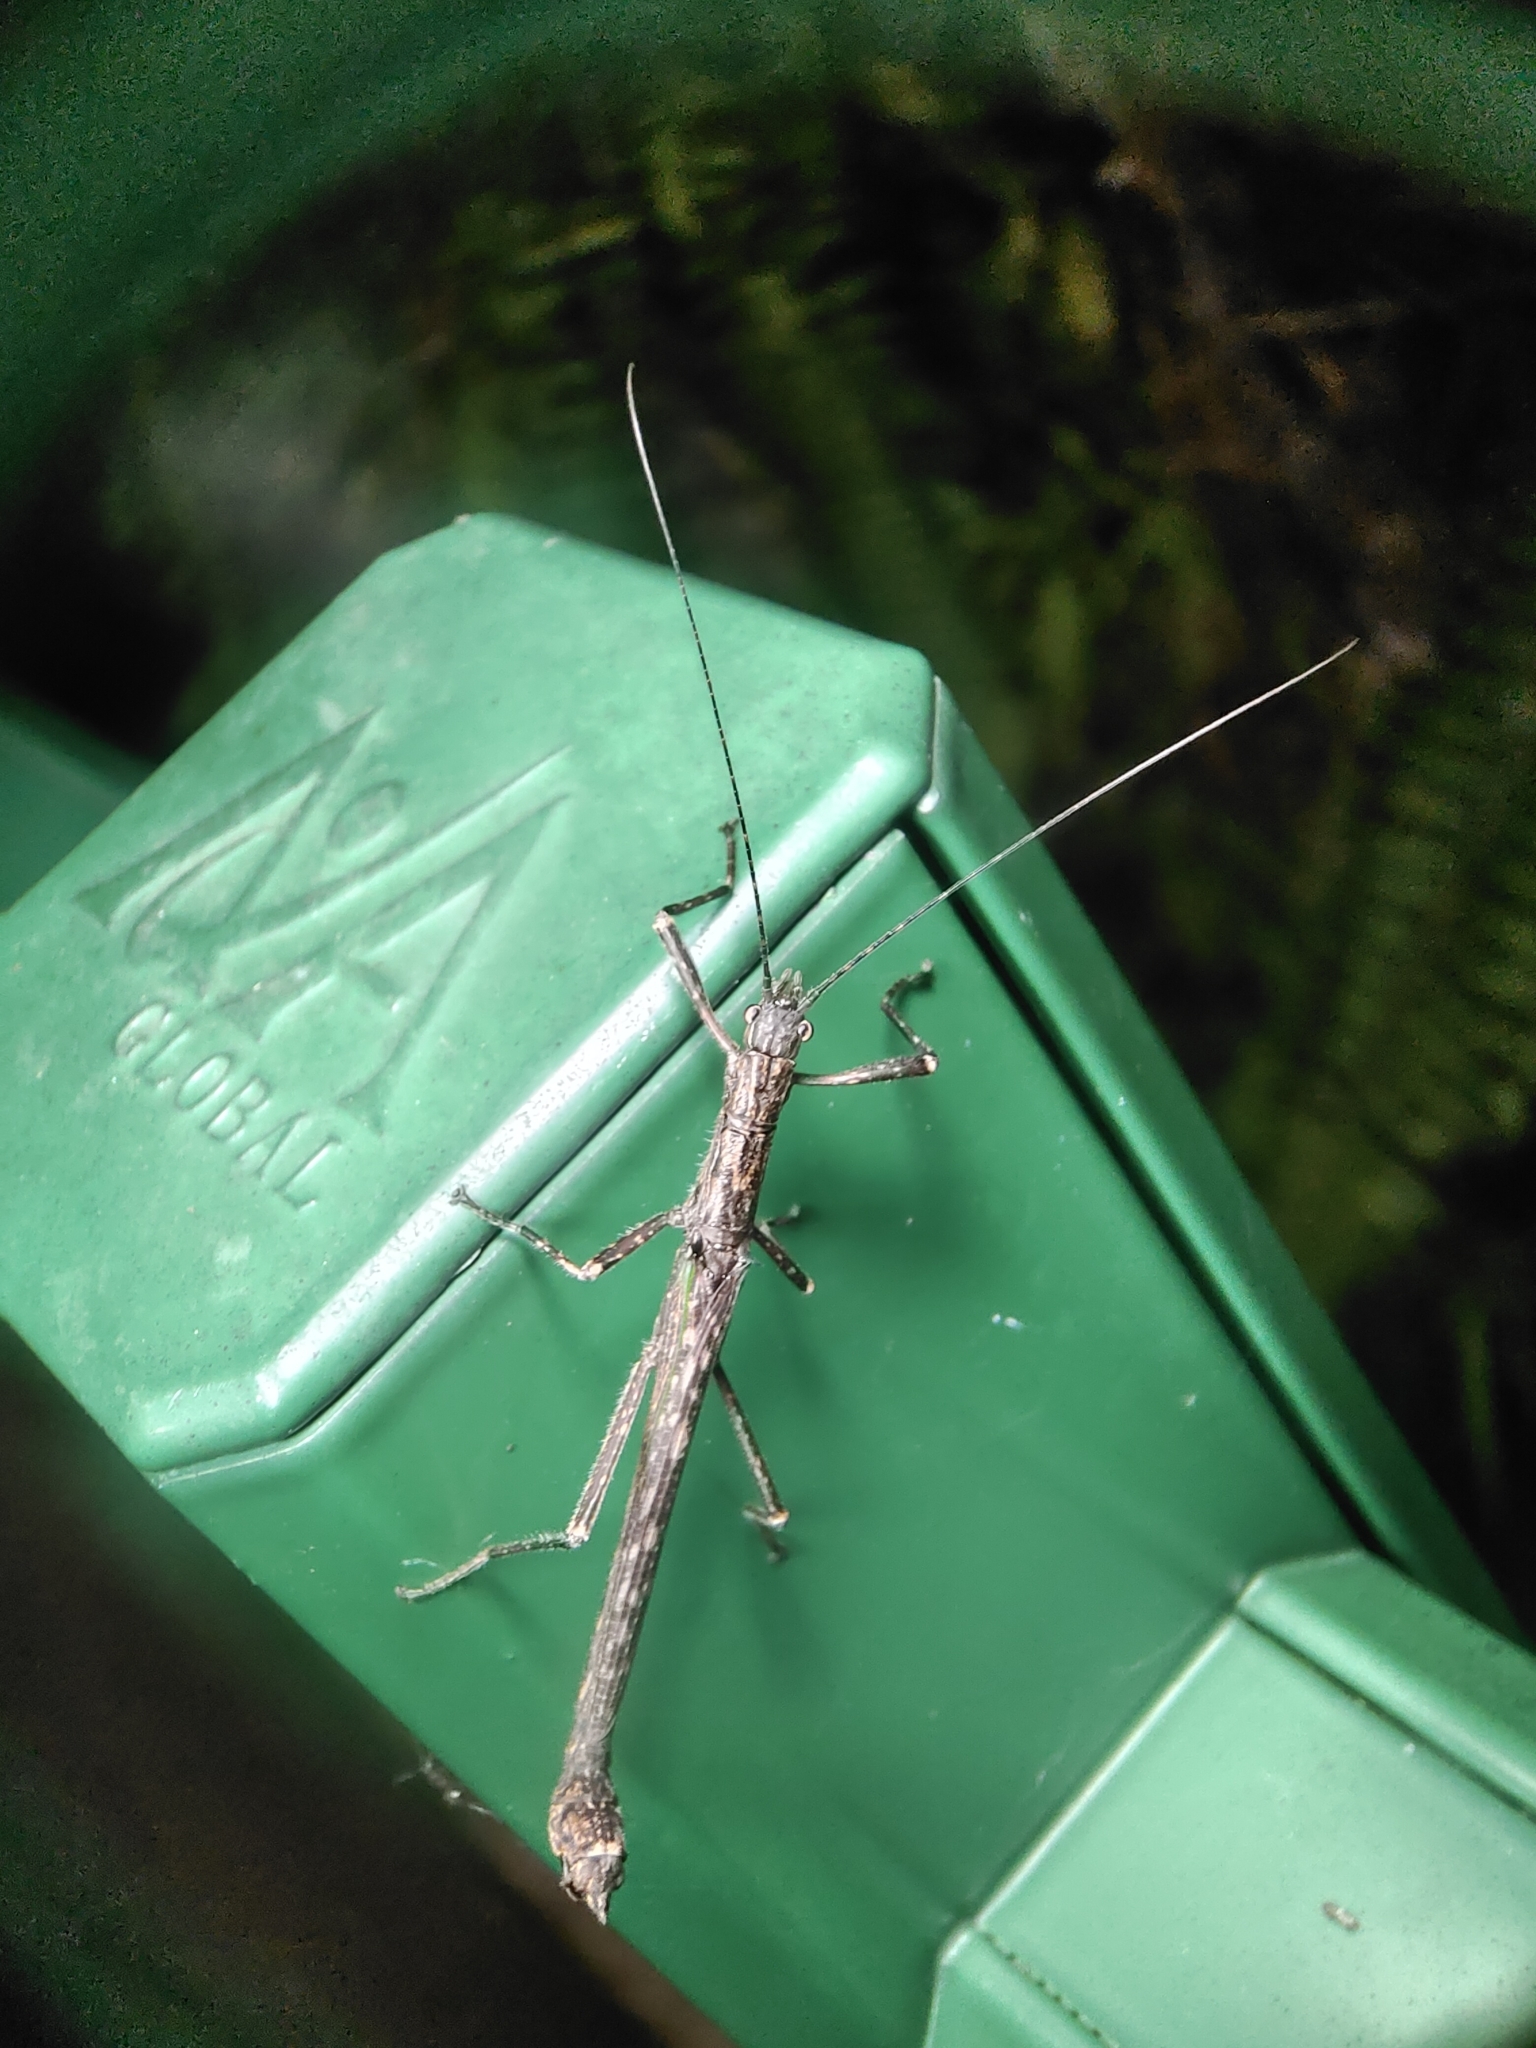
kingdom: Animalia
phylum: Arthropoda
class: Insecta
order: Phasmida
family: Aschiphasmatidae
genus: Presbistus
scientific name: Presbistus peleus
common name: Green striped flying stick
